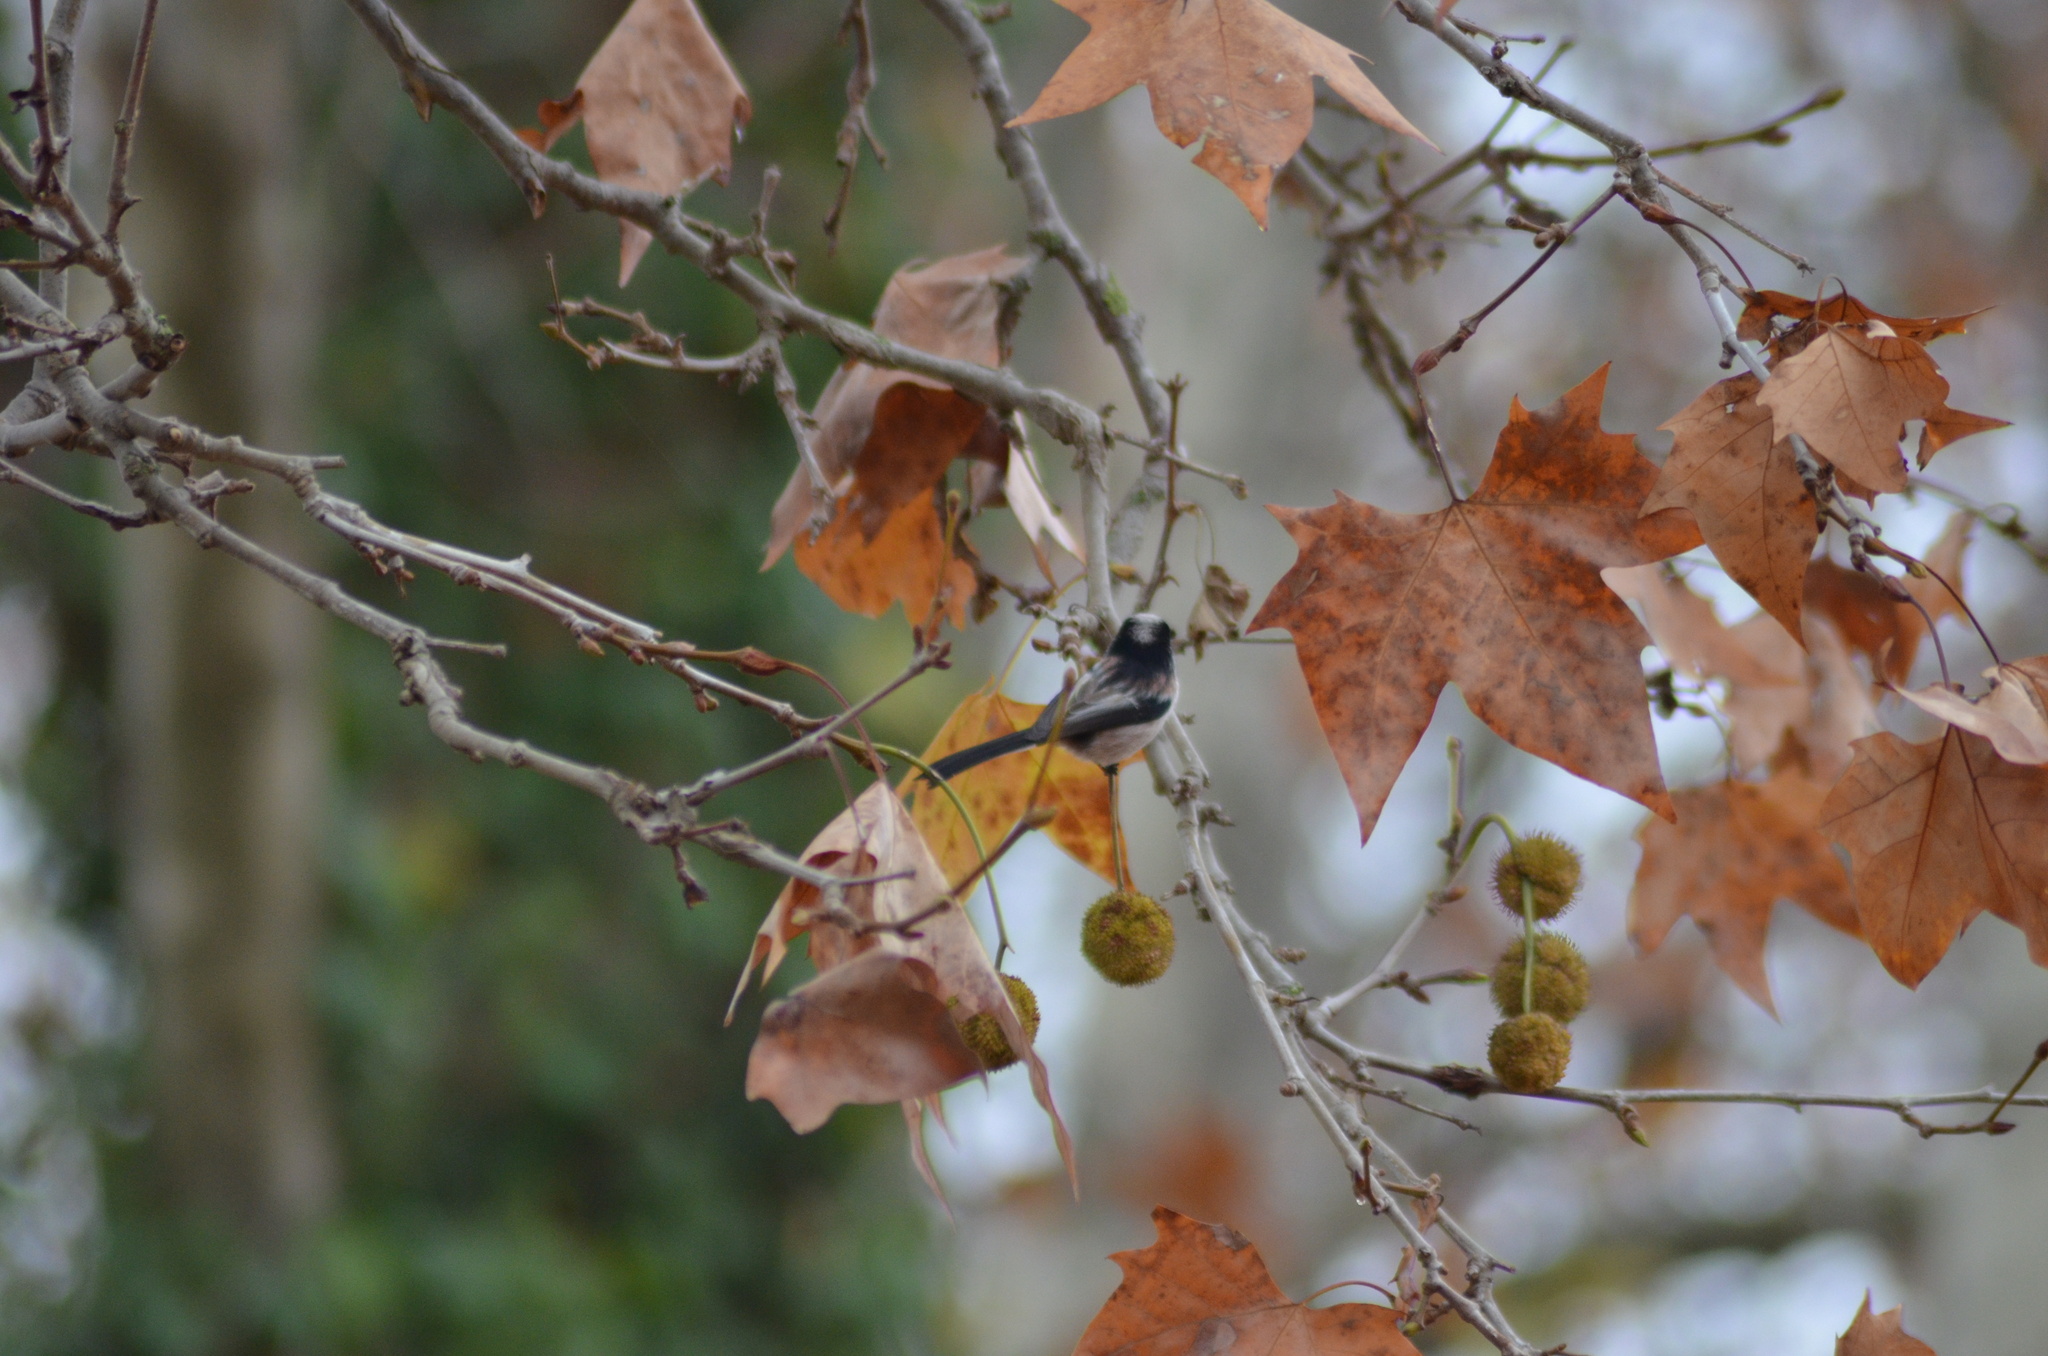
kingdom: Animalia
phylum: Chordata
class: Aves
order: Passeriformes
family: Aegithalidae
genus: Aegithalos
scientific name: Aegithalos caudatus
